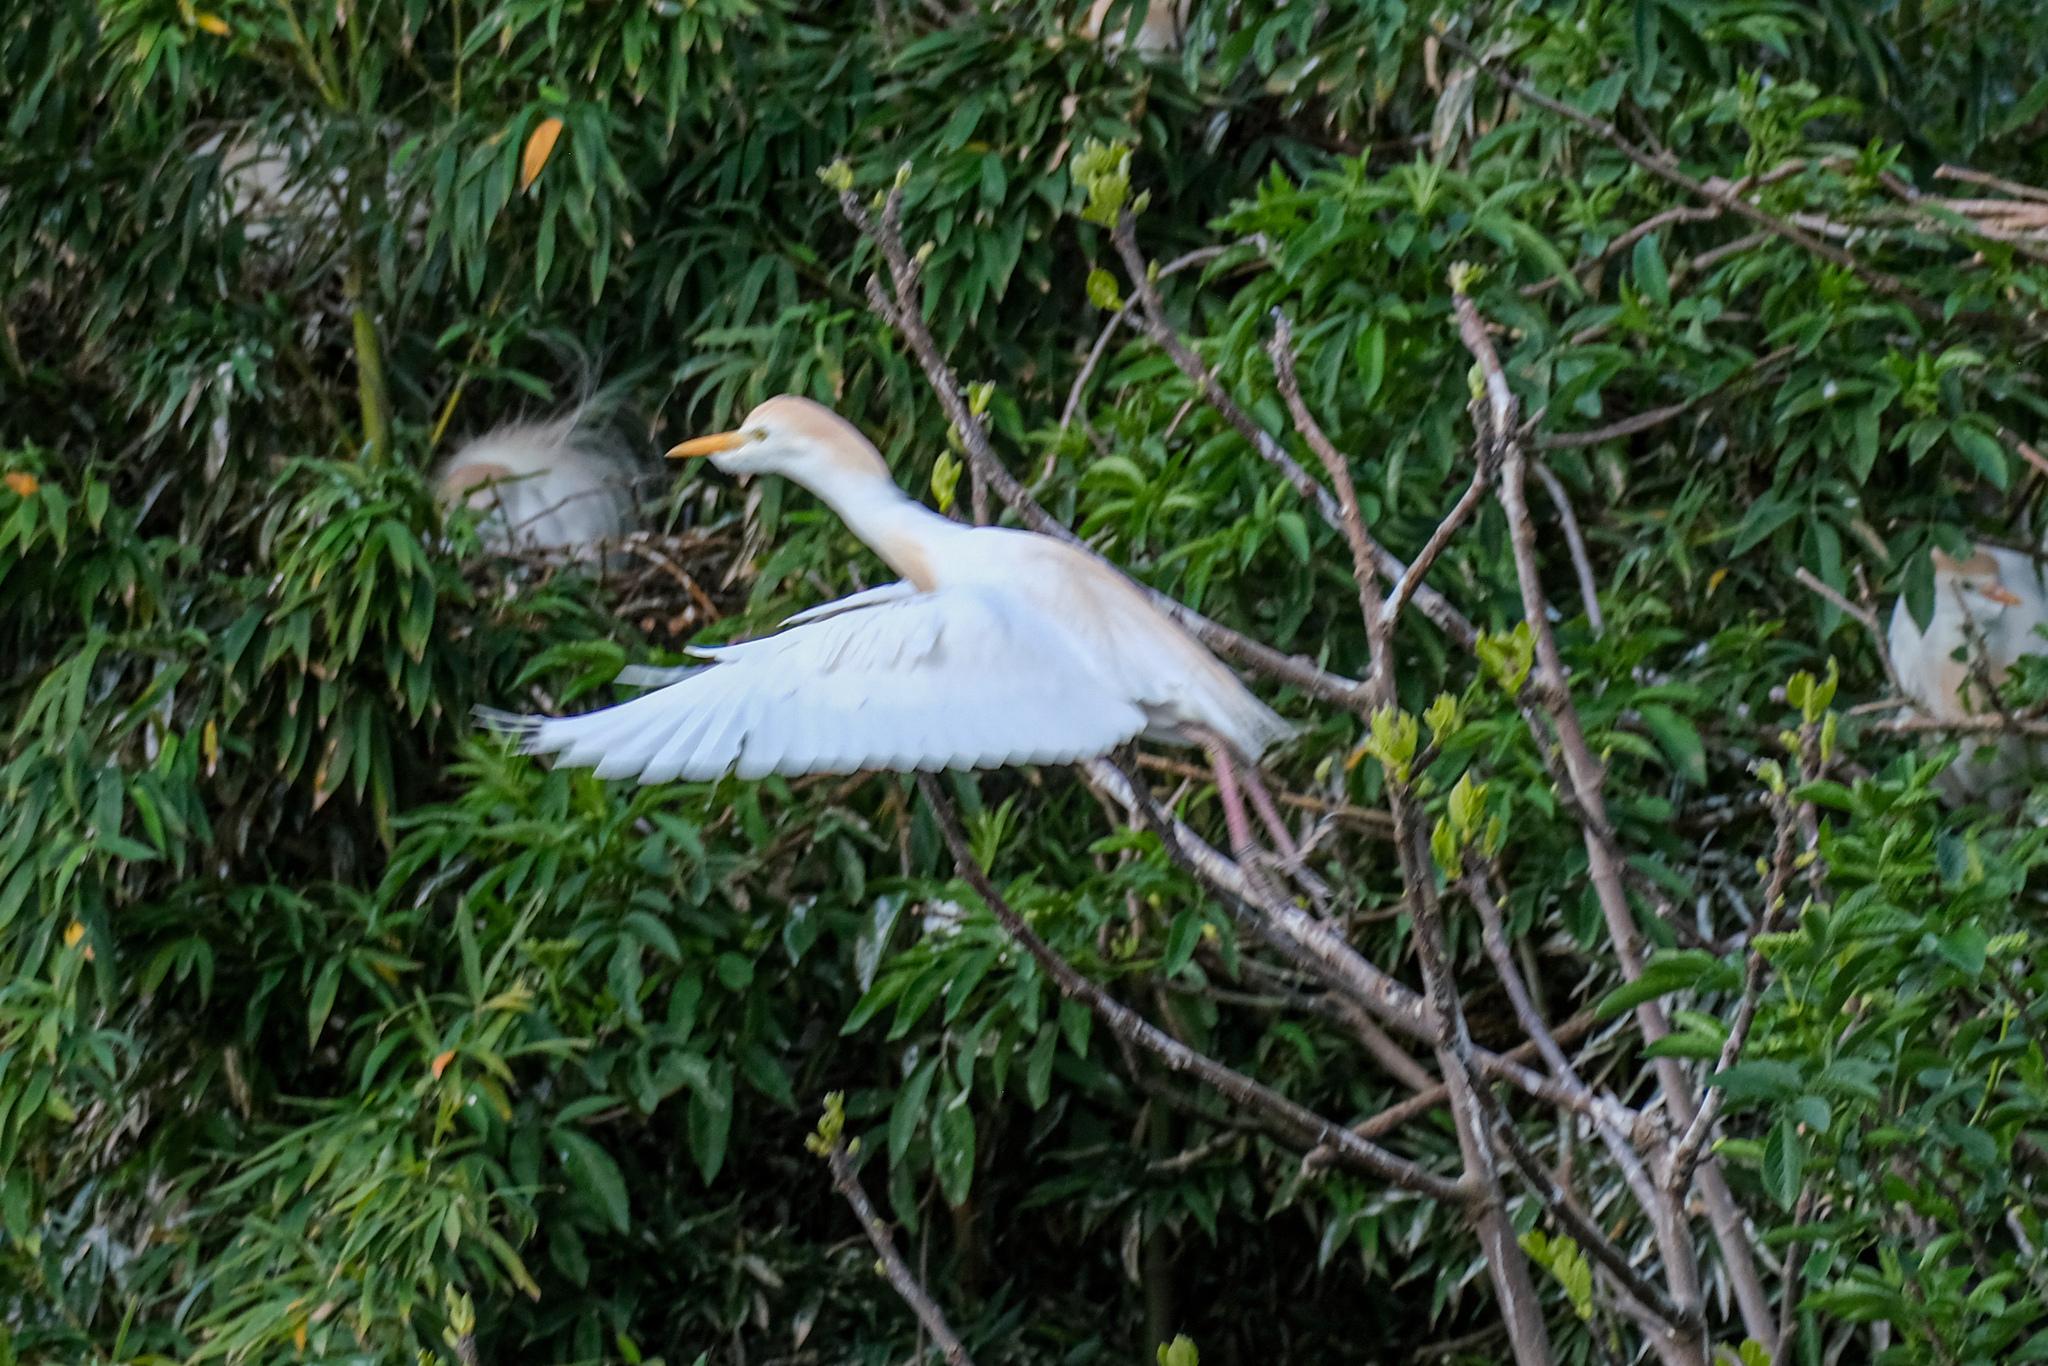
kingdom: Animalia
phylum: Chordata
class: Aves
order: Pelecaniformes
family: Ardeidae
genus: Bubulcus
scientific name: Bubulcus ibis
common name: Cattle egret
